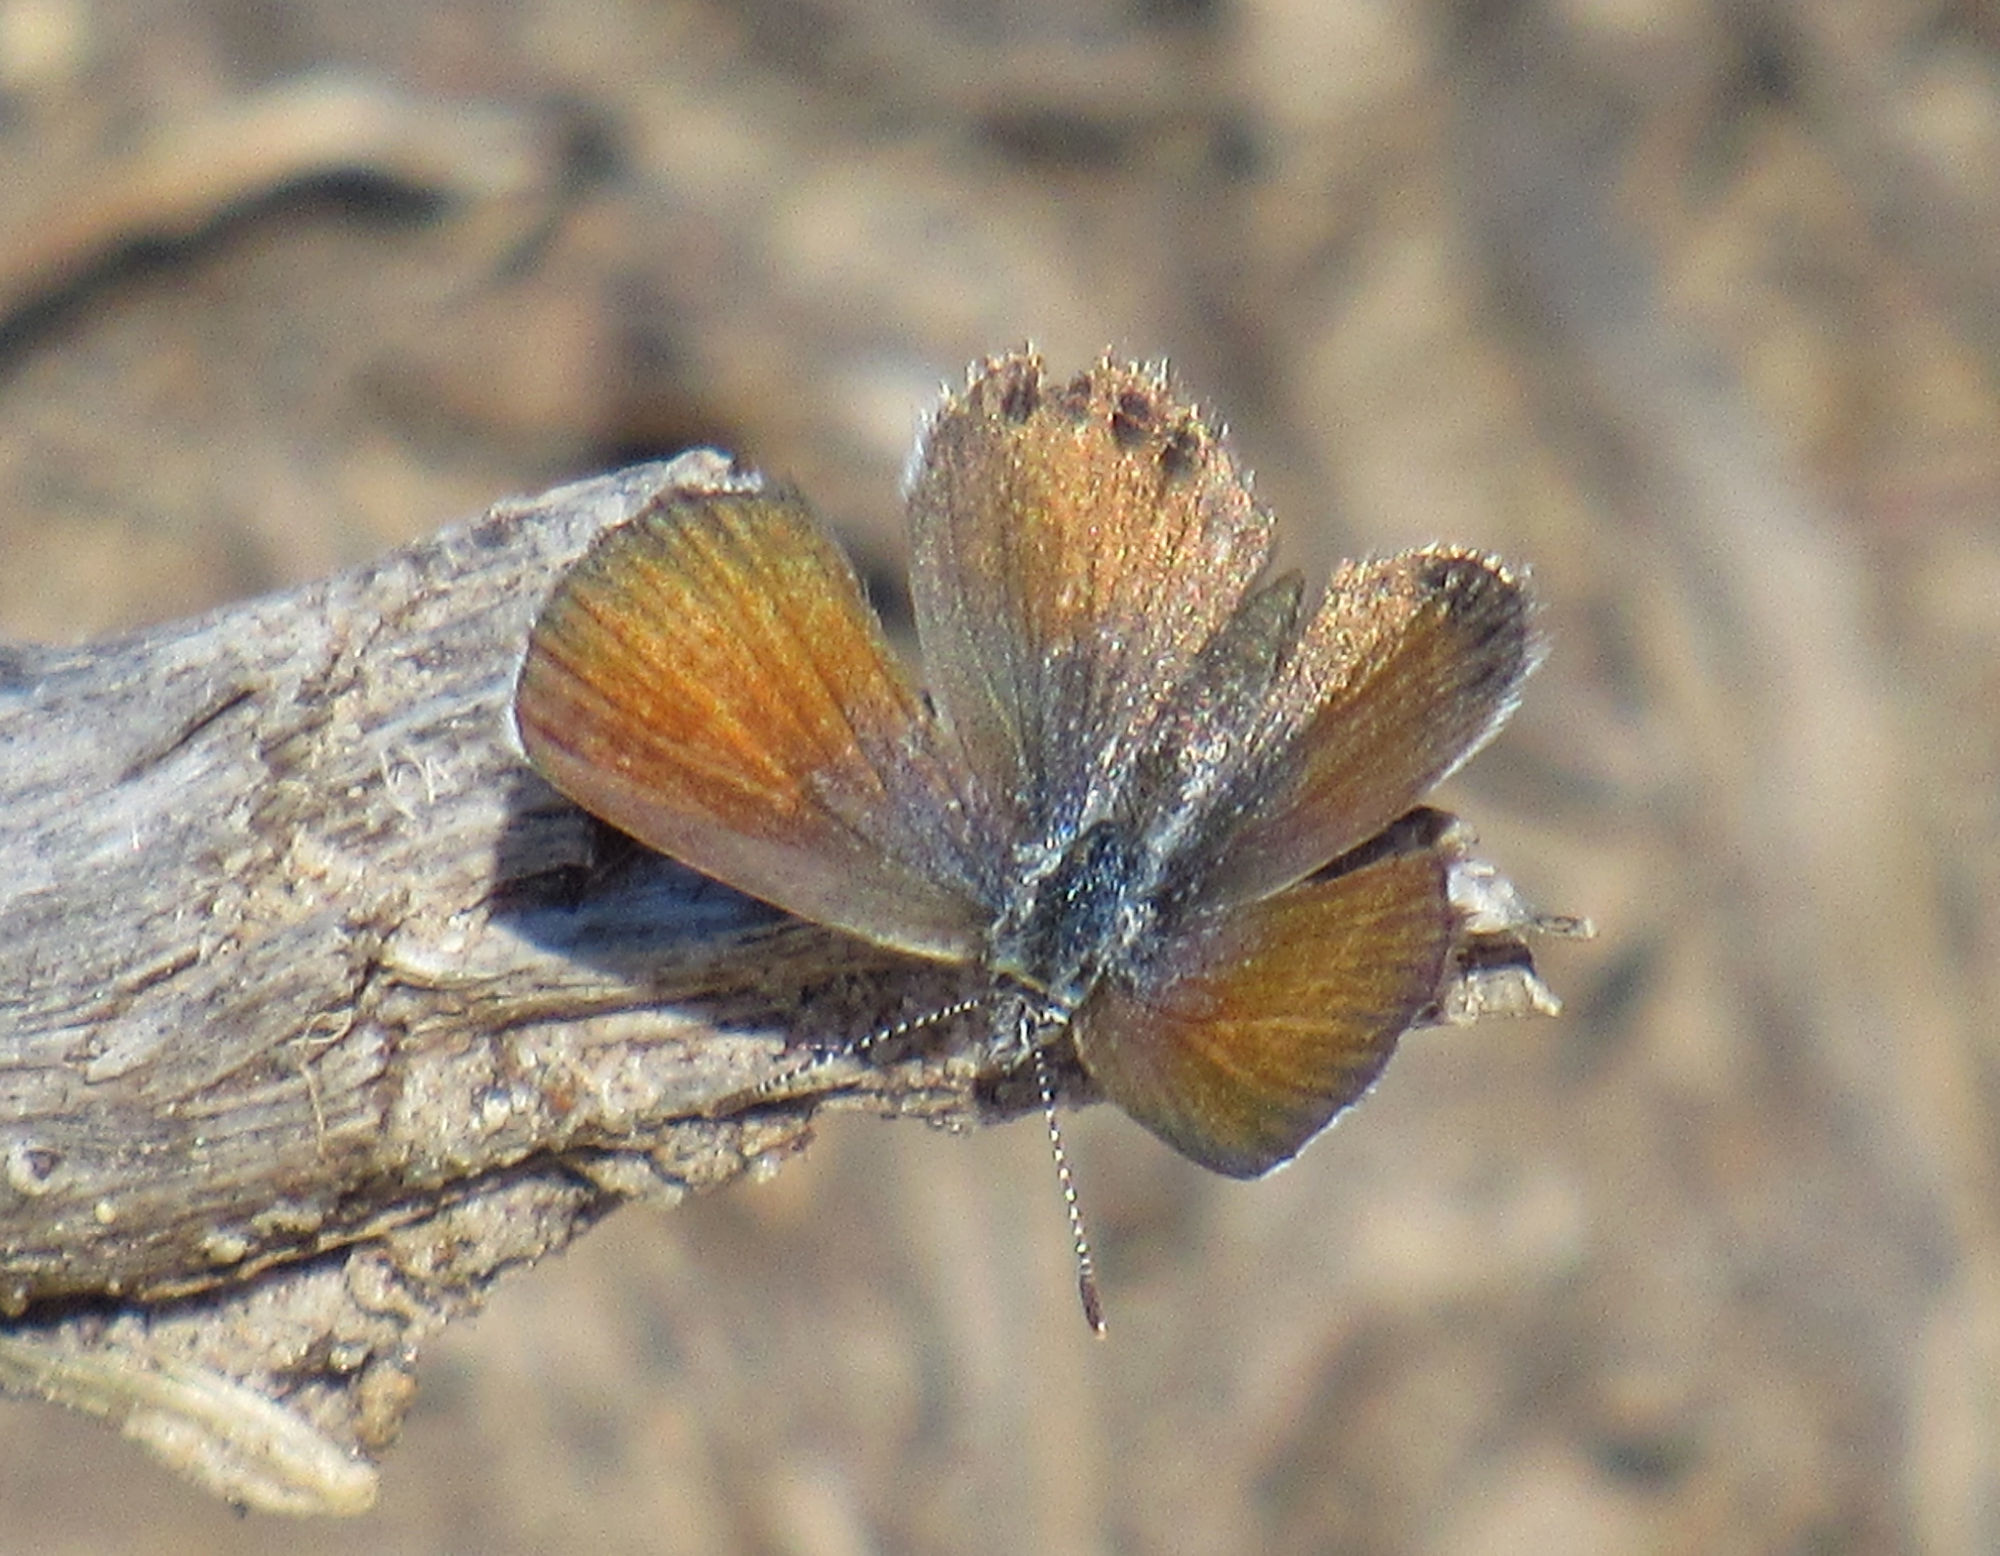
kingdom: Animalia
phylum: Arthropoda
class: Insecta
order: Lepidoptera
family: Lycaenidae
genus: Brephidium
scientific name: Brephidium exilis
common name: Pygmy blue
